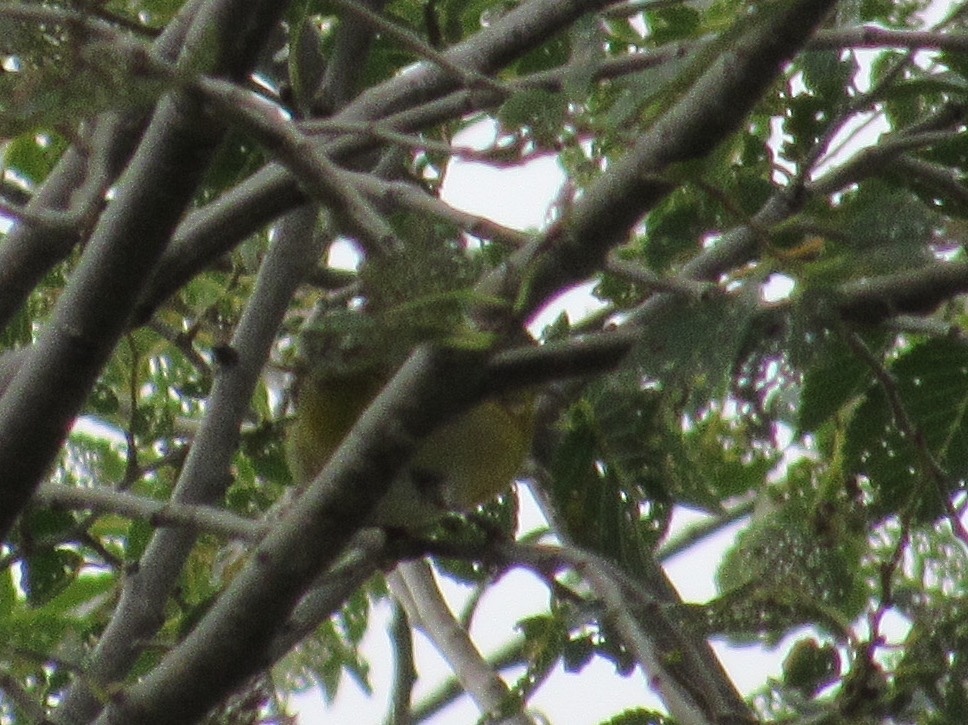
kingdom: Animalia
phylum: Chordata
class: Aves
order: Passeriformes
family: Parulidae
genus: Leiothlypis
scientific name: Leiothlypis ruficapilla
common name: Nashville warbler
